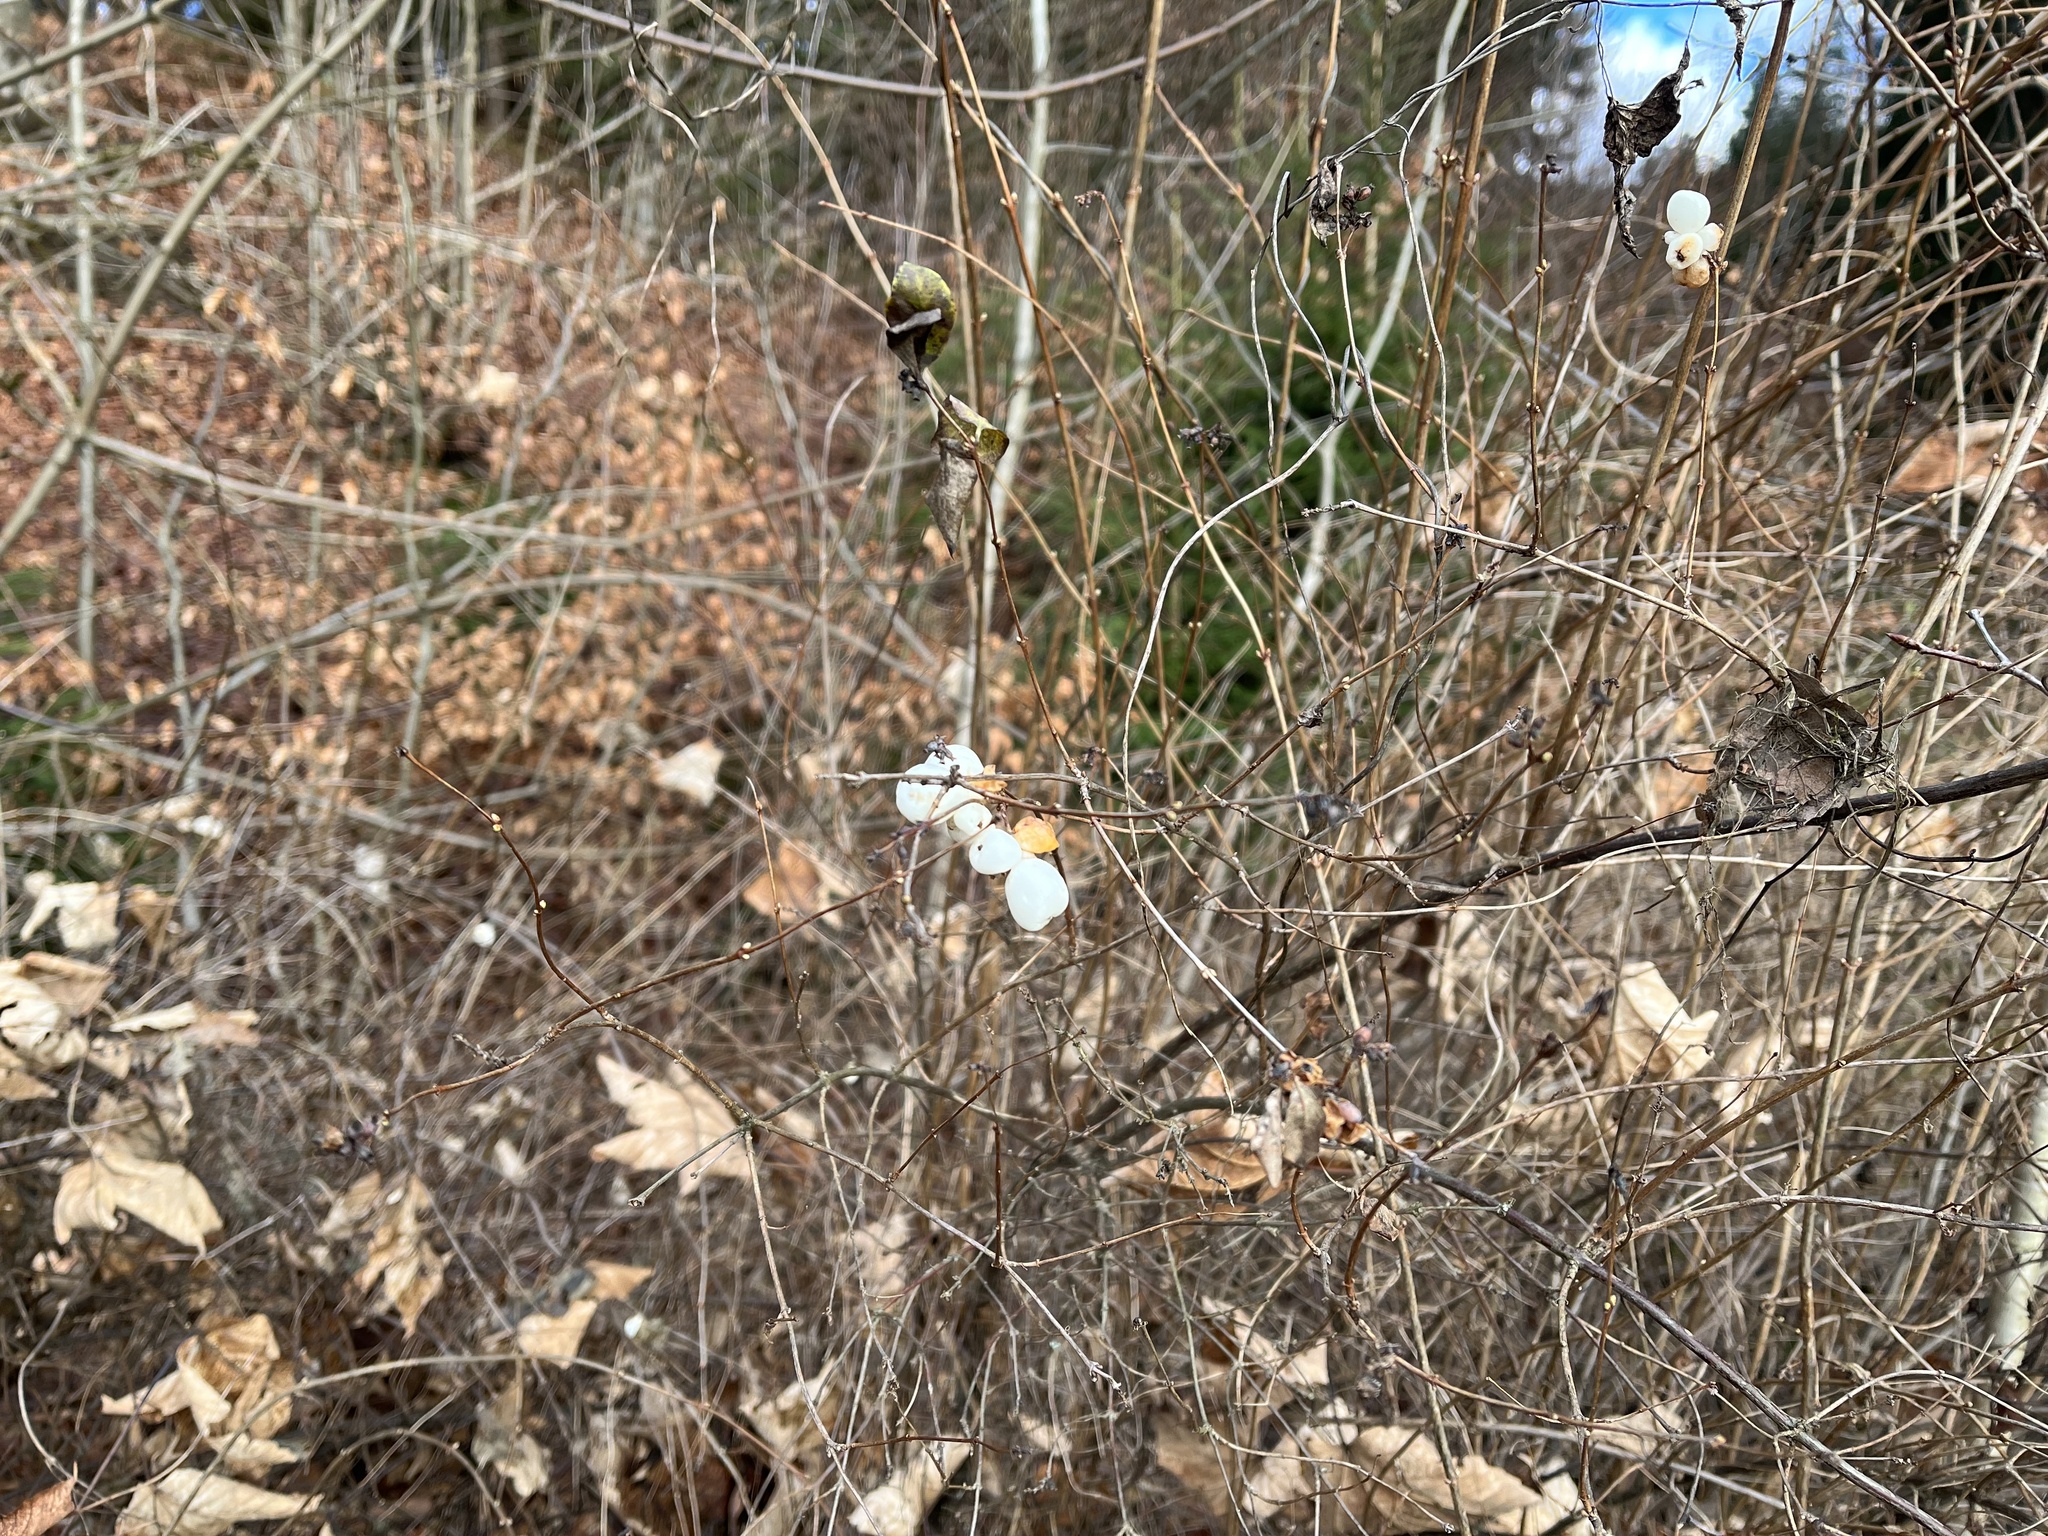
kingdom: Plantae
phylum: Tracheophyta
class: Magnoliopsida
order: Dipsacales
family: Caprifoliaceae
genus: Symphoricarpos
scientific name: Symphoricarpos albus
